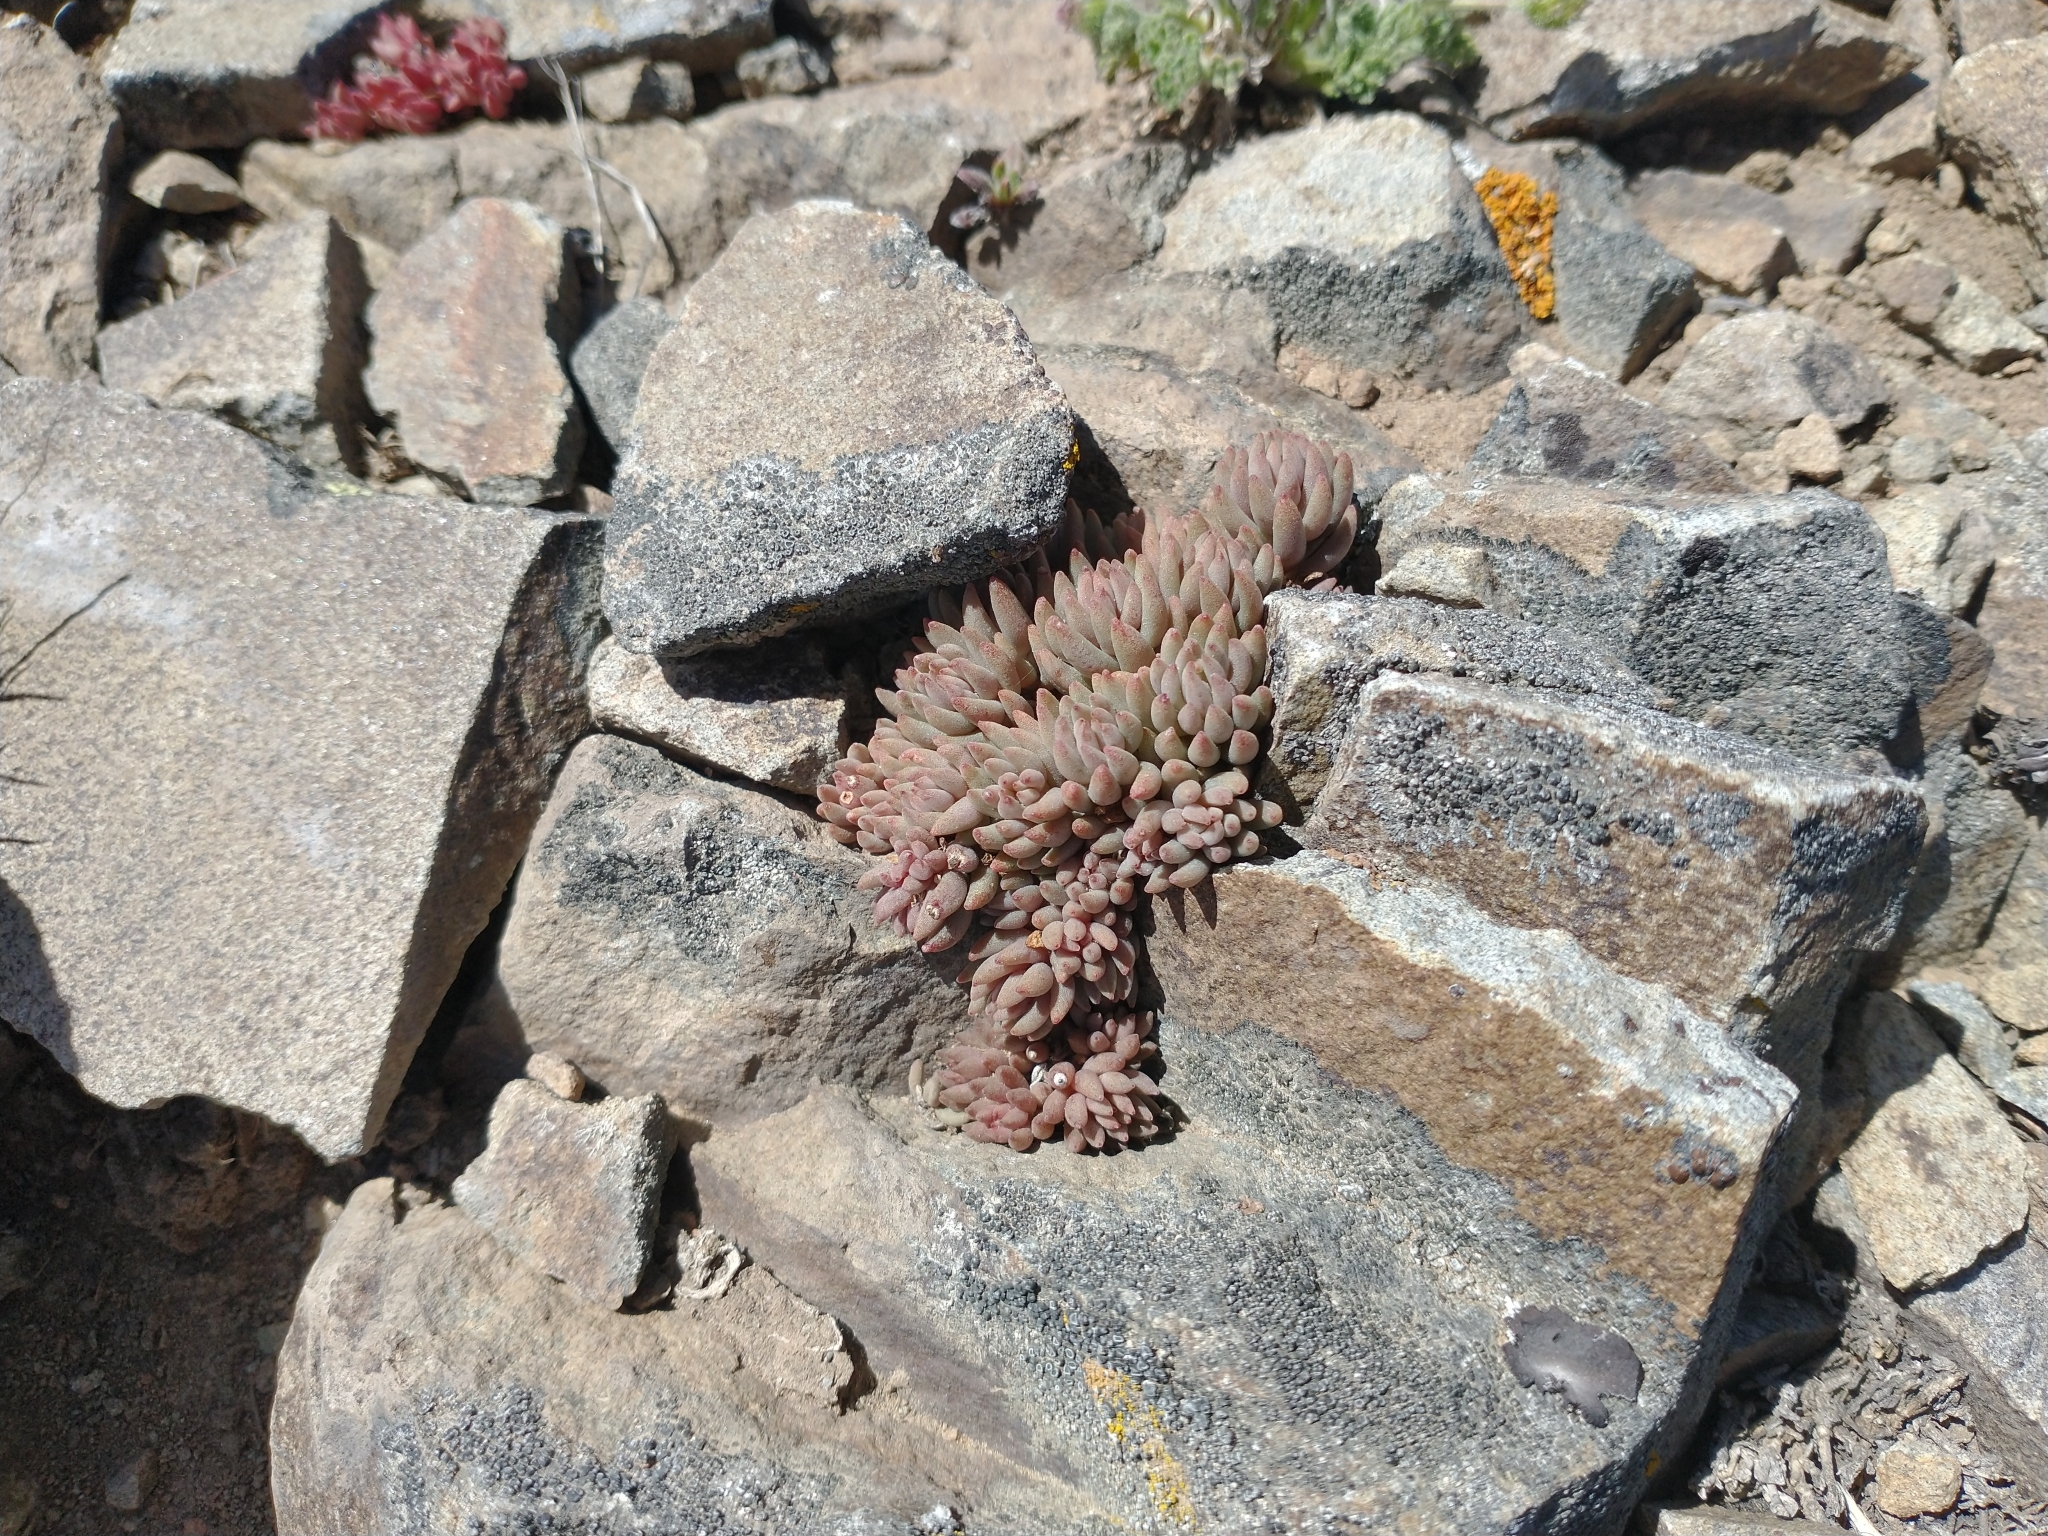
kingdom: Plantae
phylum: Tracheophyta
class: Magnoliopsida
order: Saxifragales
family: Crassulaceae
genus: Sedum
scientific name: Sedum lanceolatum
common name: Common stonecrop
